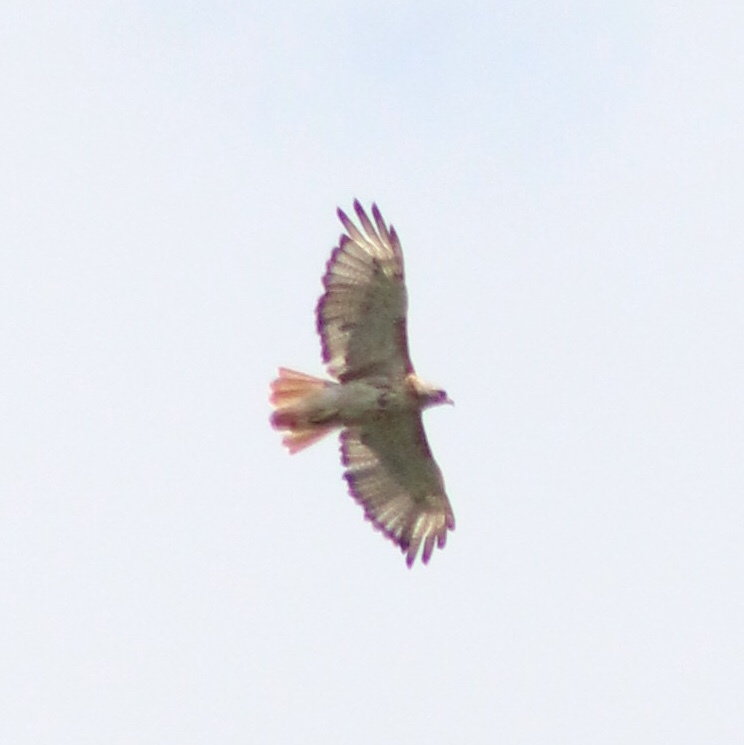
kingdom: Animalia
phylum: Chordata
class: Aves
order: Accipitriformes
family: Accipitridae
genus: Buteo
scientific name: Buteo jamaicensis
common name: Red-tailed hawk
